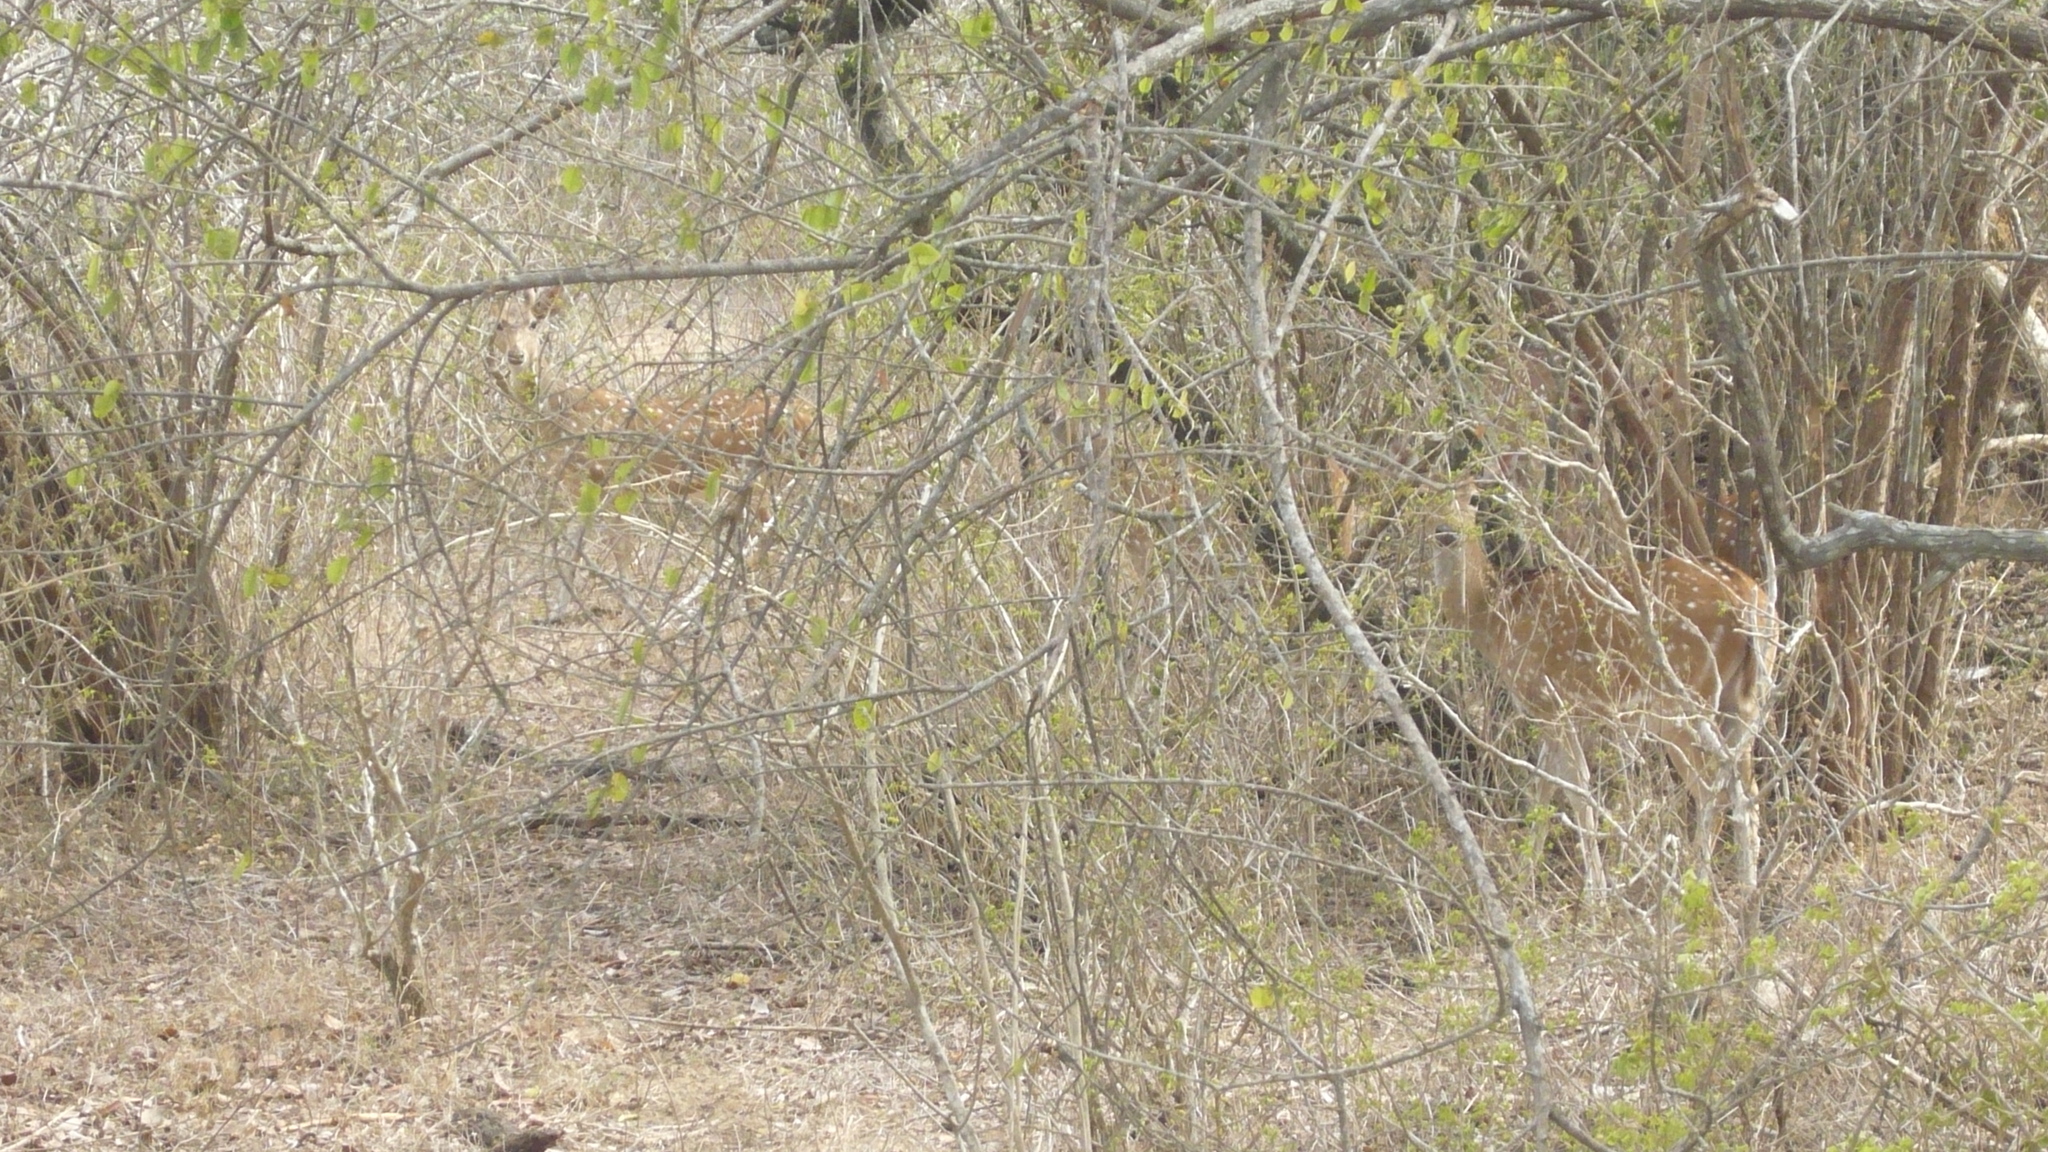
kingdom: Animalia
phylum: Chordata
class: Mammalia
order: Artiodactyla
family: Cervidae
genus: Axis
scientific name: Axis axis
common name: Chital
